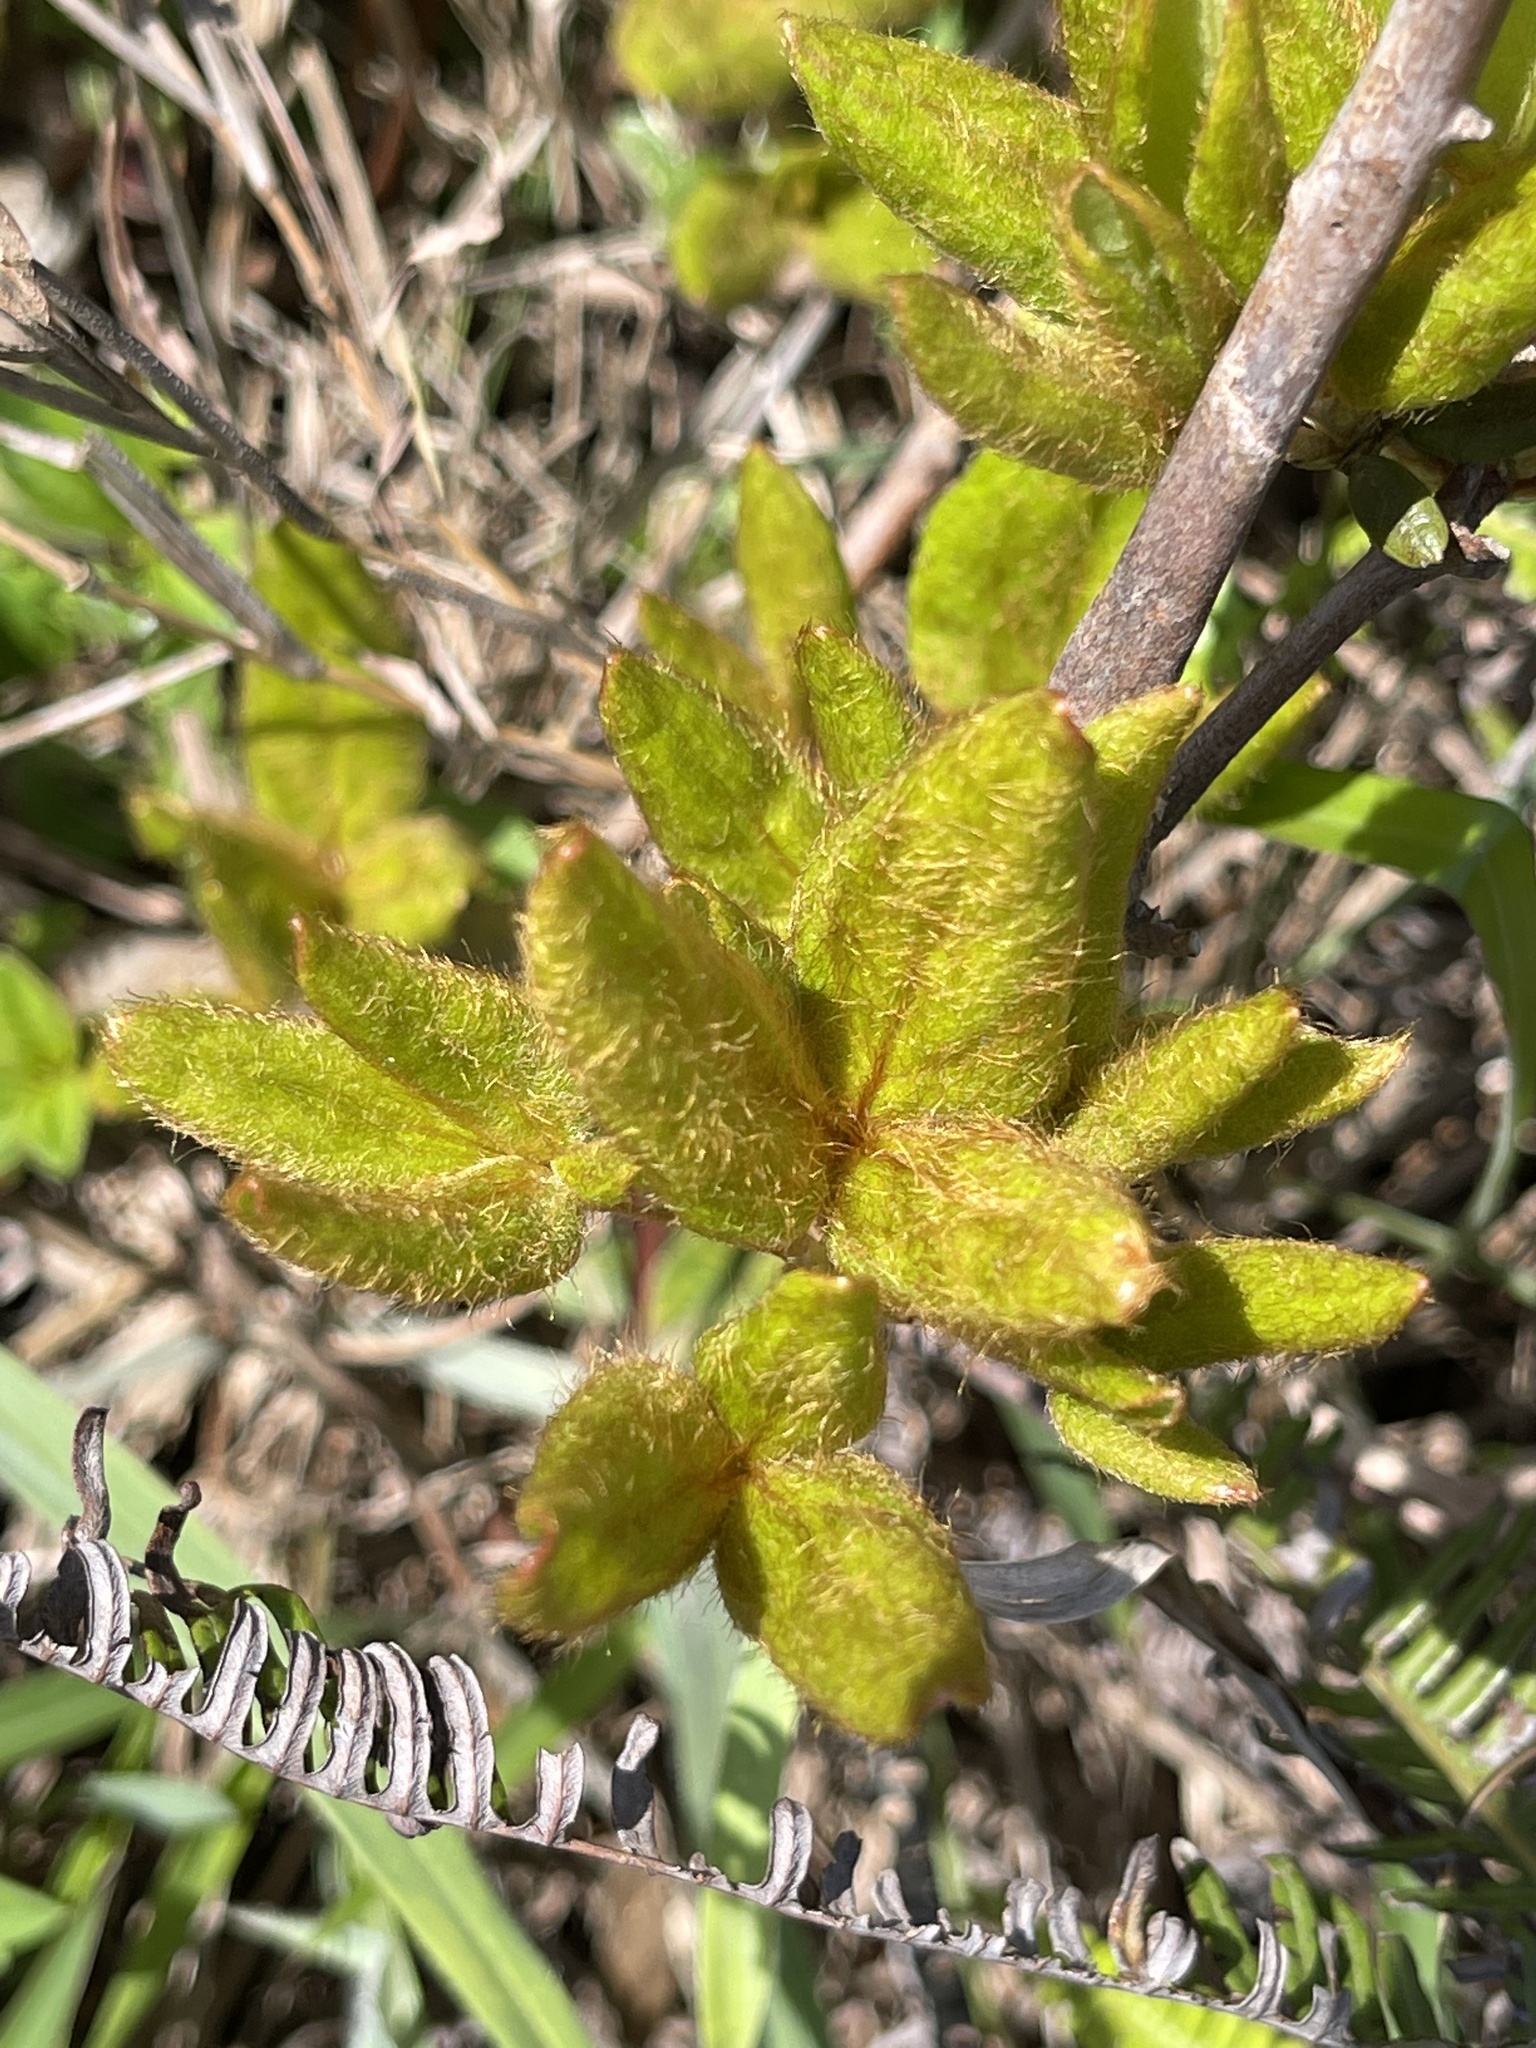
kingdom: Plantae
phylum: Tracheophyta
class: Magnoliopsida
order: Ericales
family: Ericaceae
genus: Rhododendron
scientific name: Rhododendron farrerae
